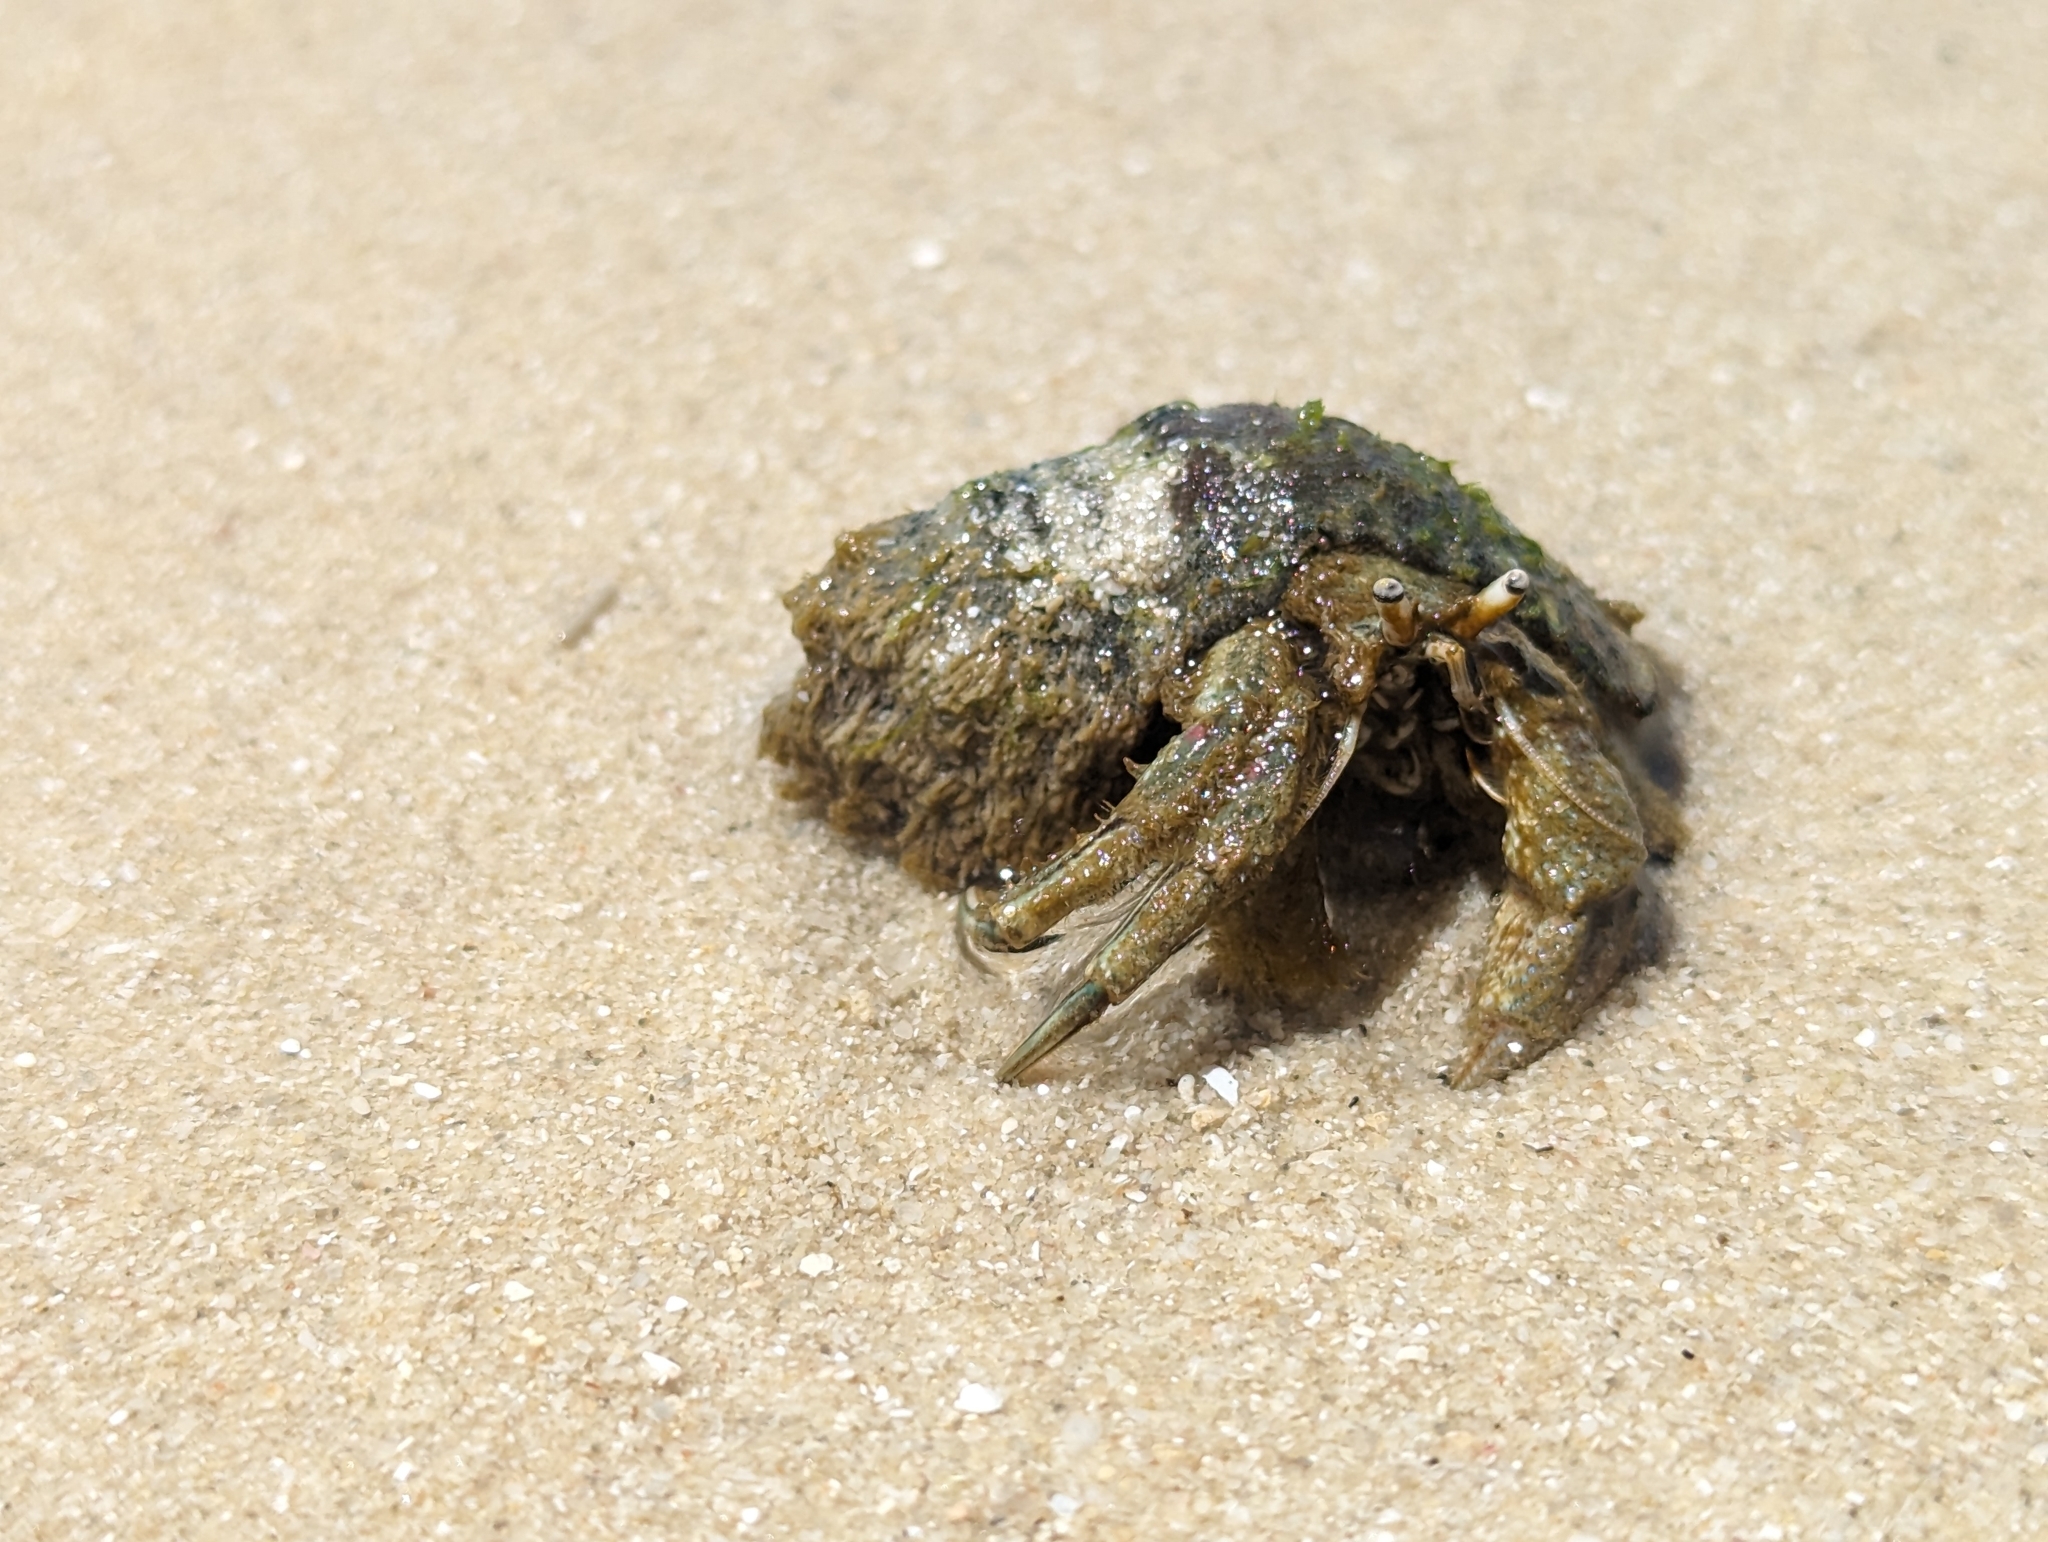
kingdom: Animalia
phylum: Arthropoda
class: Malacostraca
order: Decapoda
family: Diogenidae
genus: Diogenes
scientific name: Diogenes brevirostris
